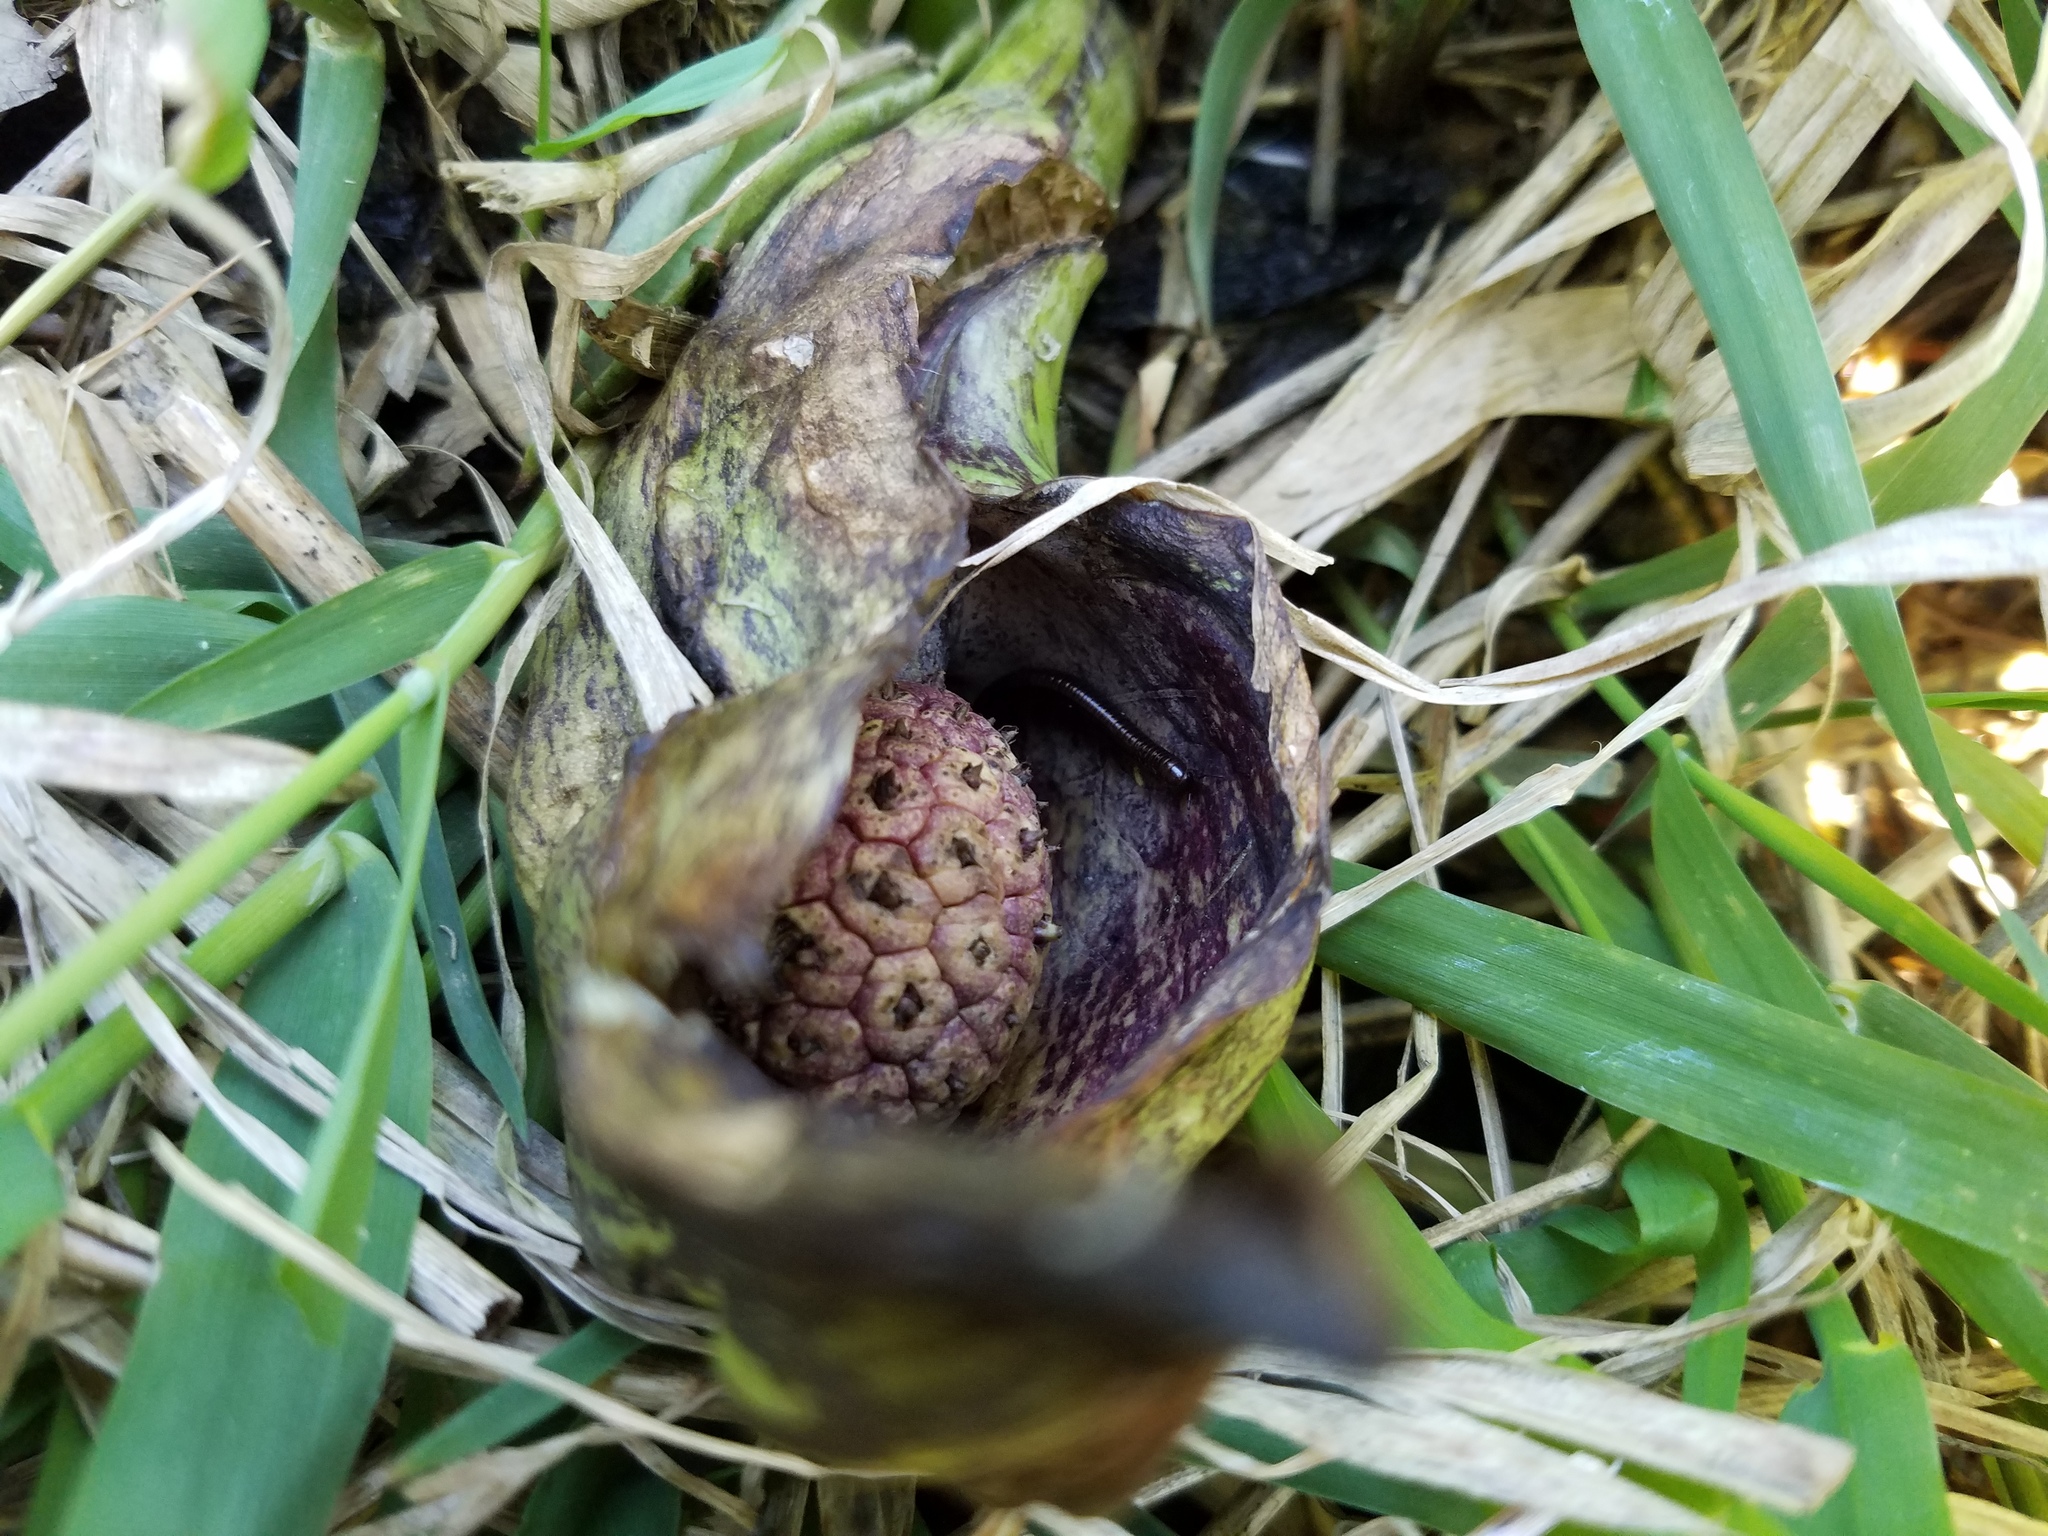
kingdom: Plantae
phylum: Tracheophyta
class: Liliopsida
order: Alismatales
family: Araceae
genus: Symplocarpus
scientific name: Symplocarpus foetidus
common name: Eastern skunk cabbage
